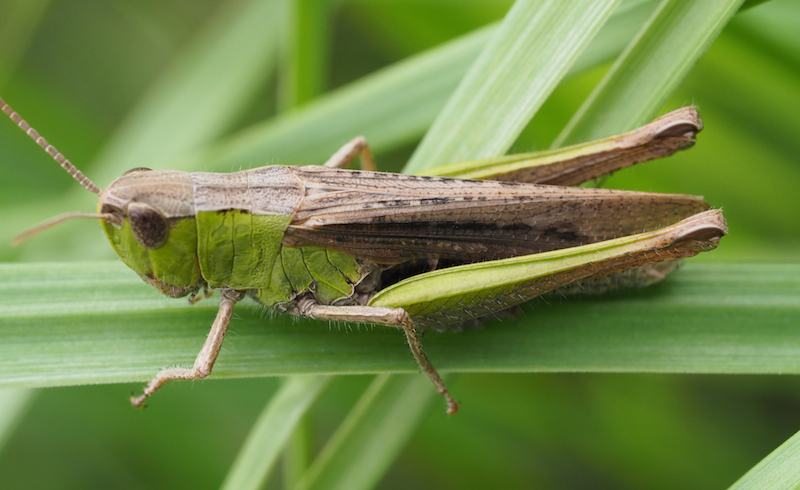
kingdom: Animalia
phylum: Arthropoda
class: Insecta
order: Orthoptera
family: Acrididae
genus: Chorthippus
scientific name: Chorthippus dorsatus
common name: Steppe grasshopper
